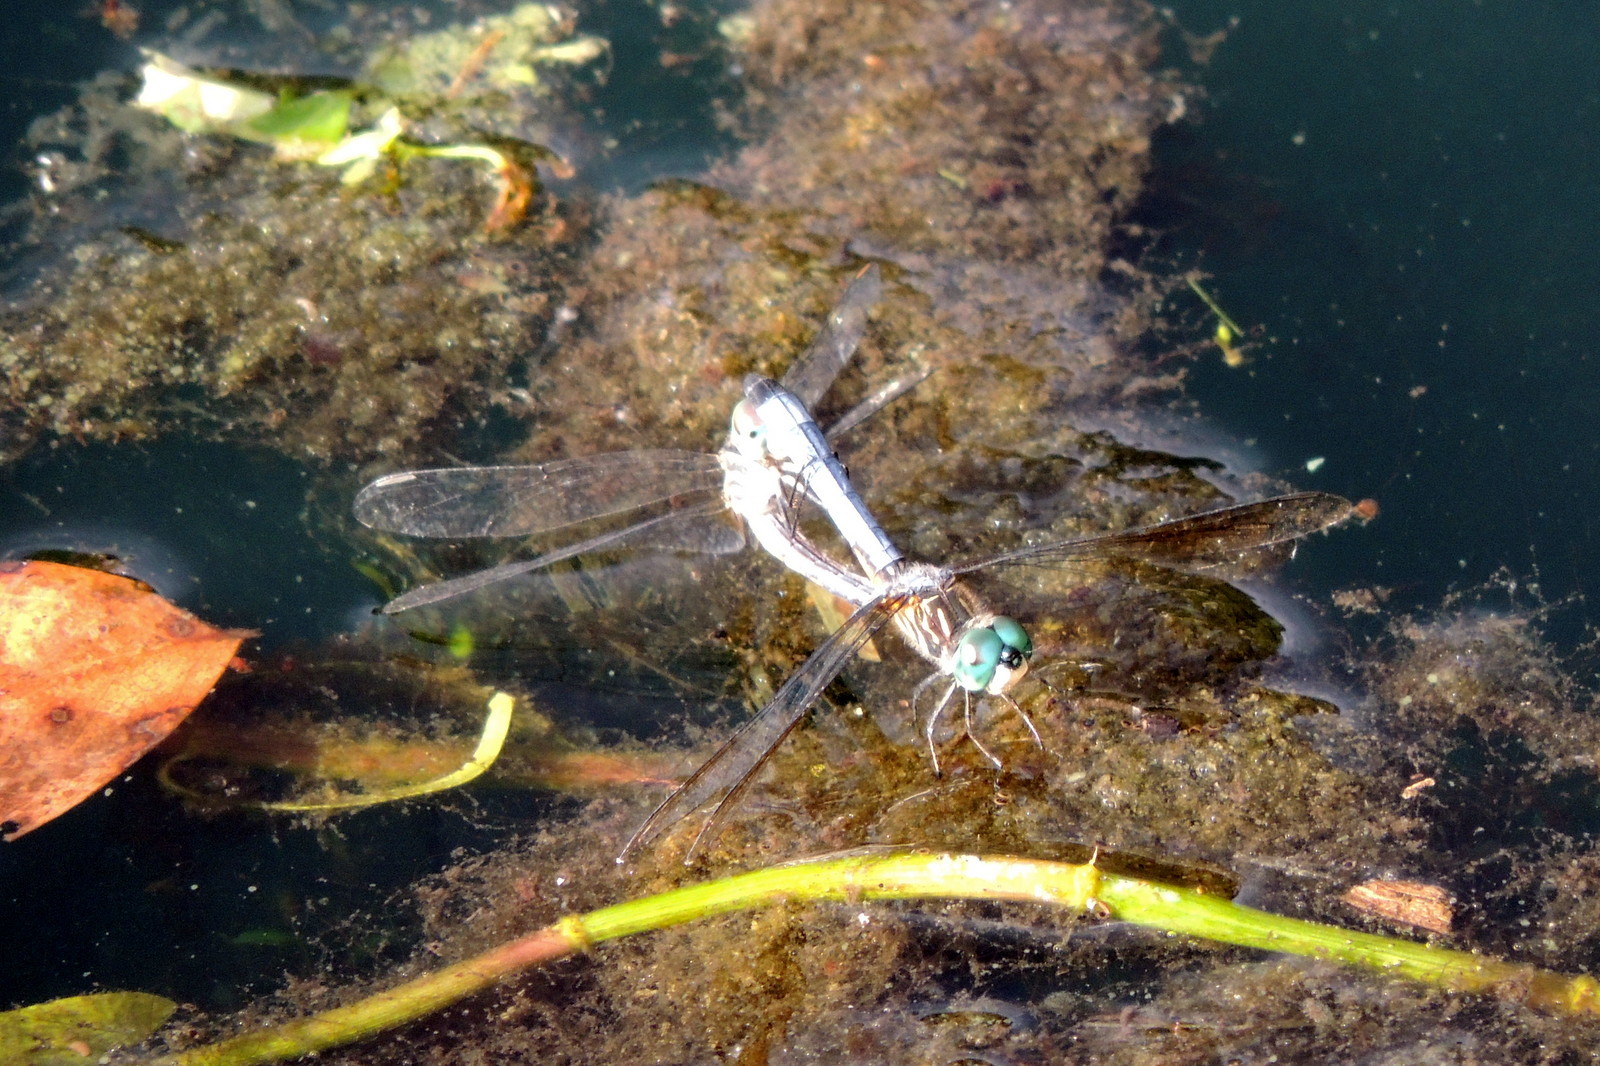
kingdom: Animalia
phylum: Arthropoda
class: Insecta
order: Odonata
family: Libellulidae
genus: Pachydiplax
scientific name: Pachydiplax longipennis
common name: Blue dasher
